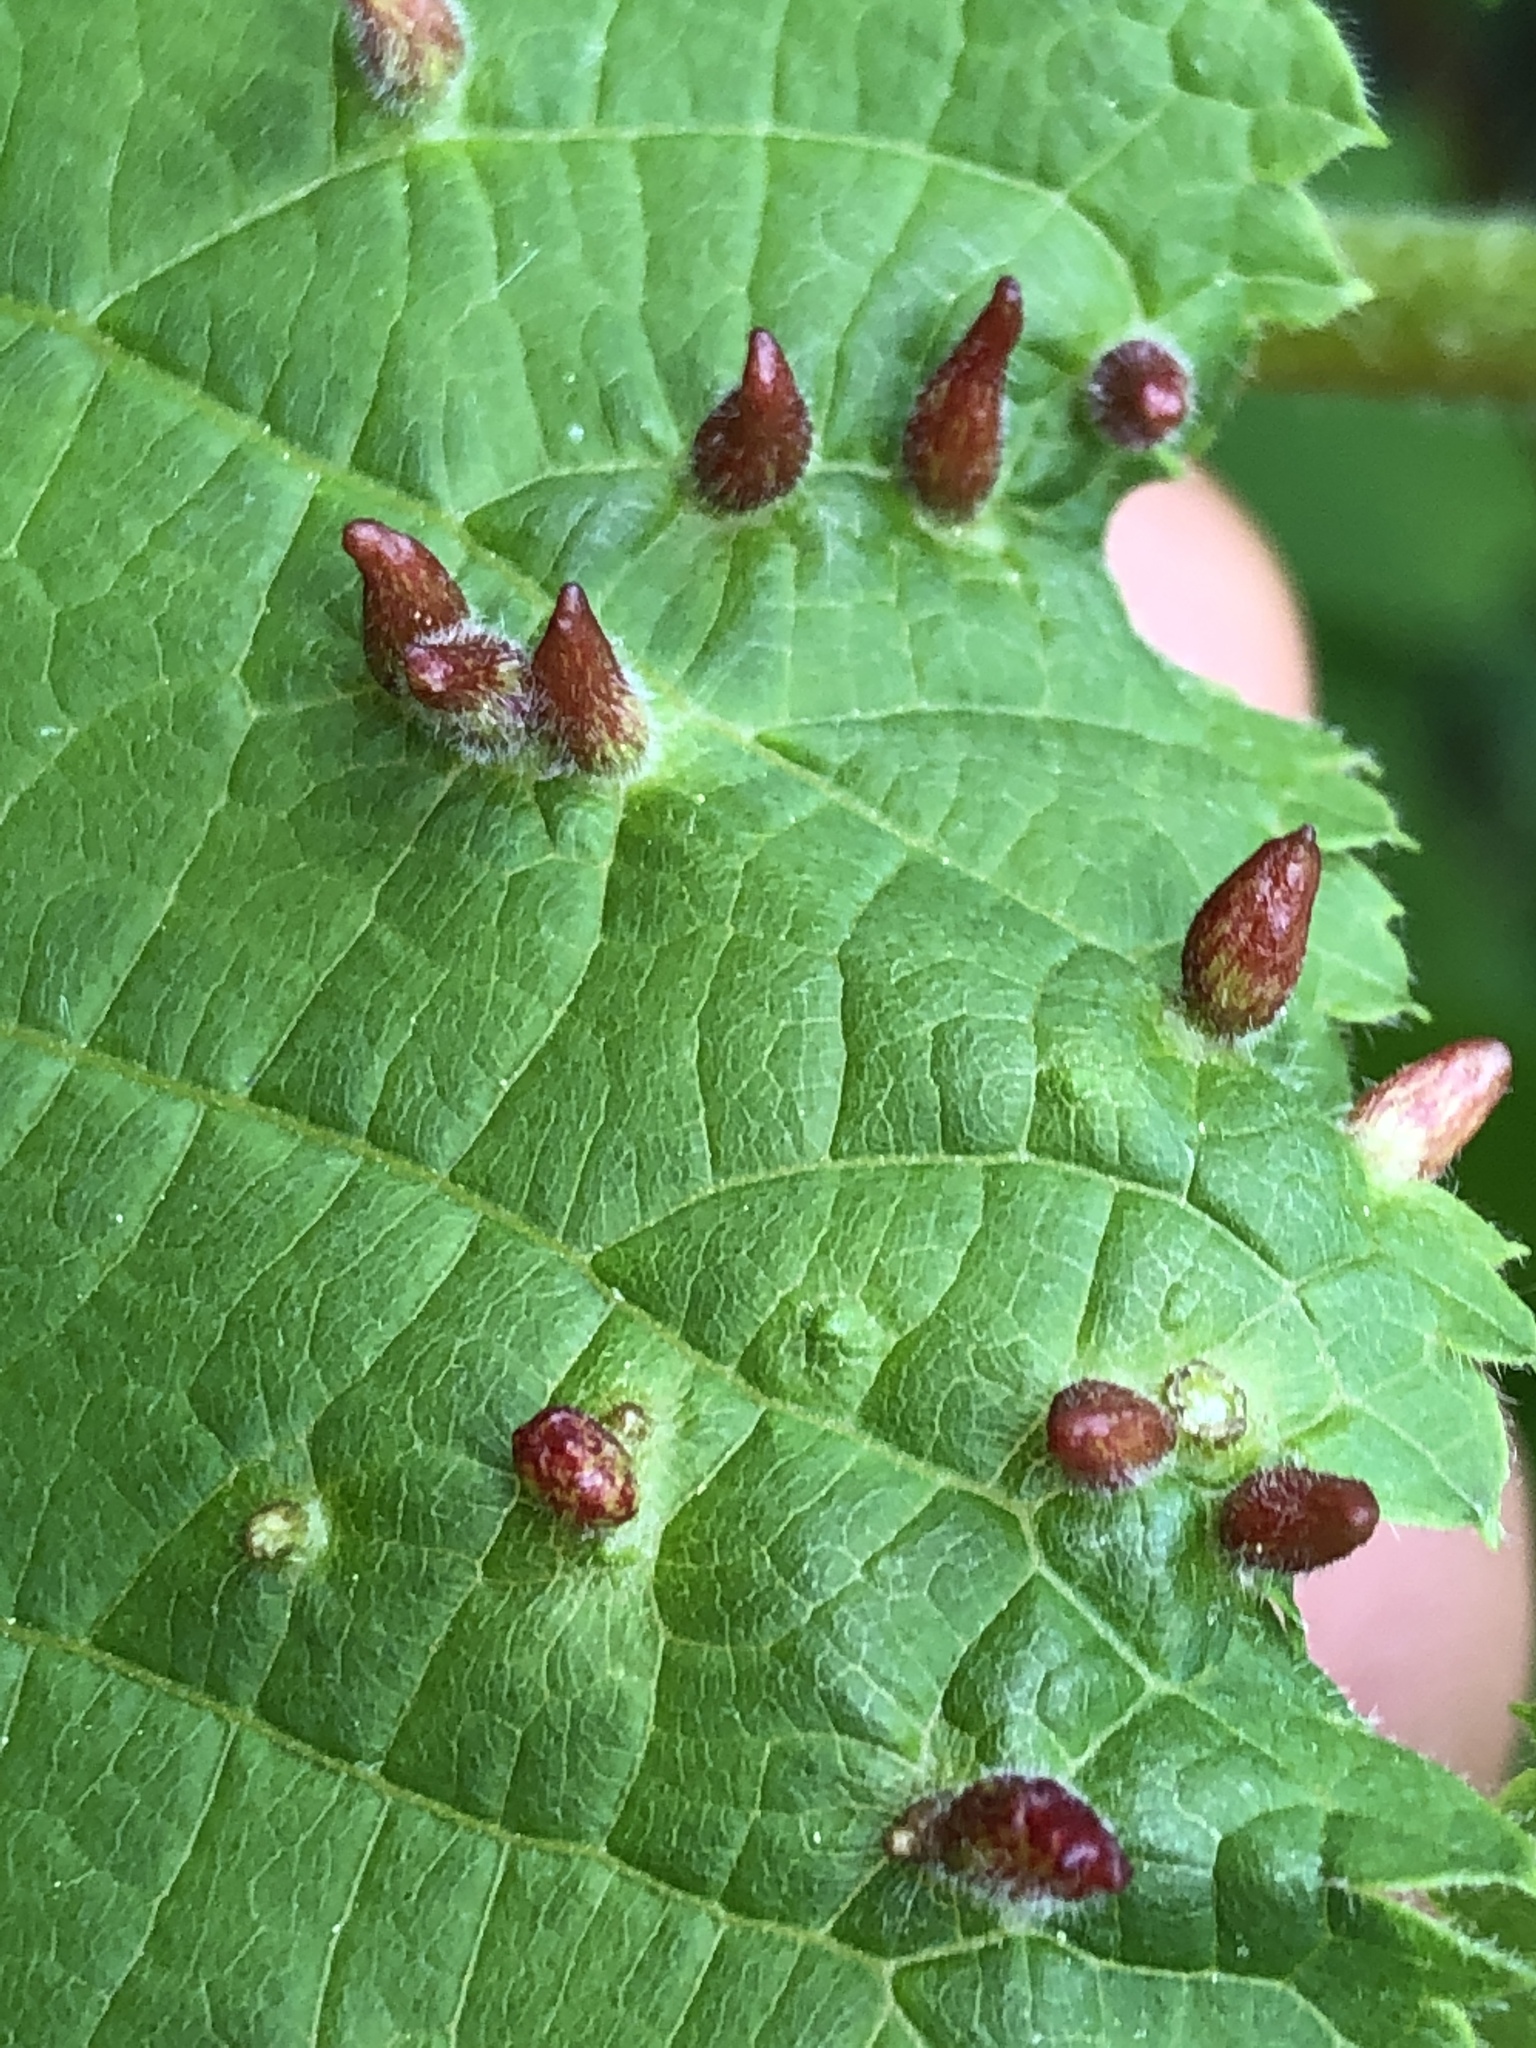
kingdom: Animalia
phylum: Arthropoda
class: Arachnida
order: Trombidiformes
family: Eriophyidae
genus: Eriophyes
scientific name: Eriophyes tiliae
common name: Red nail gall mite
